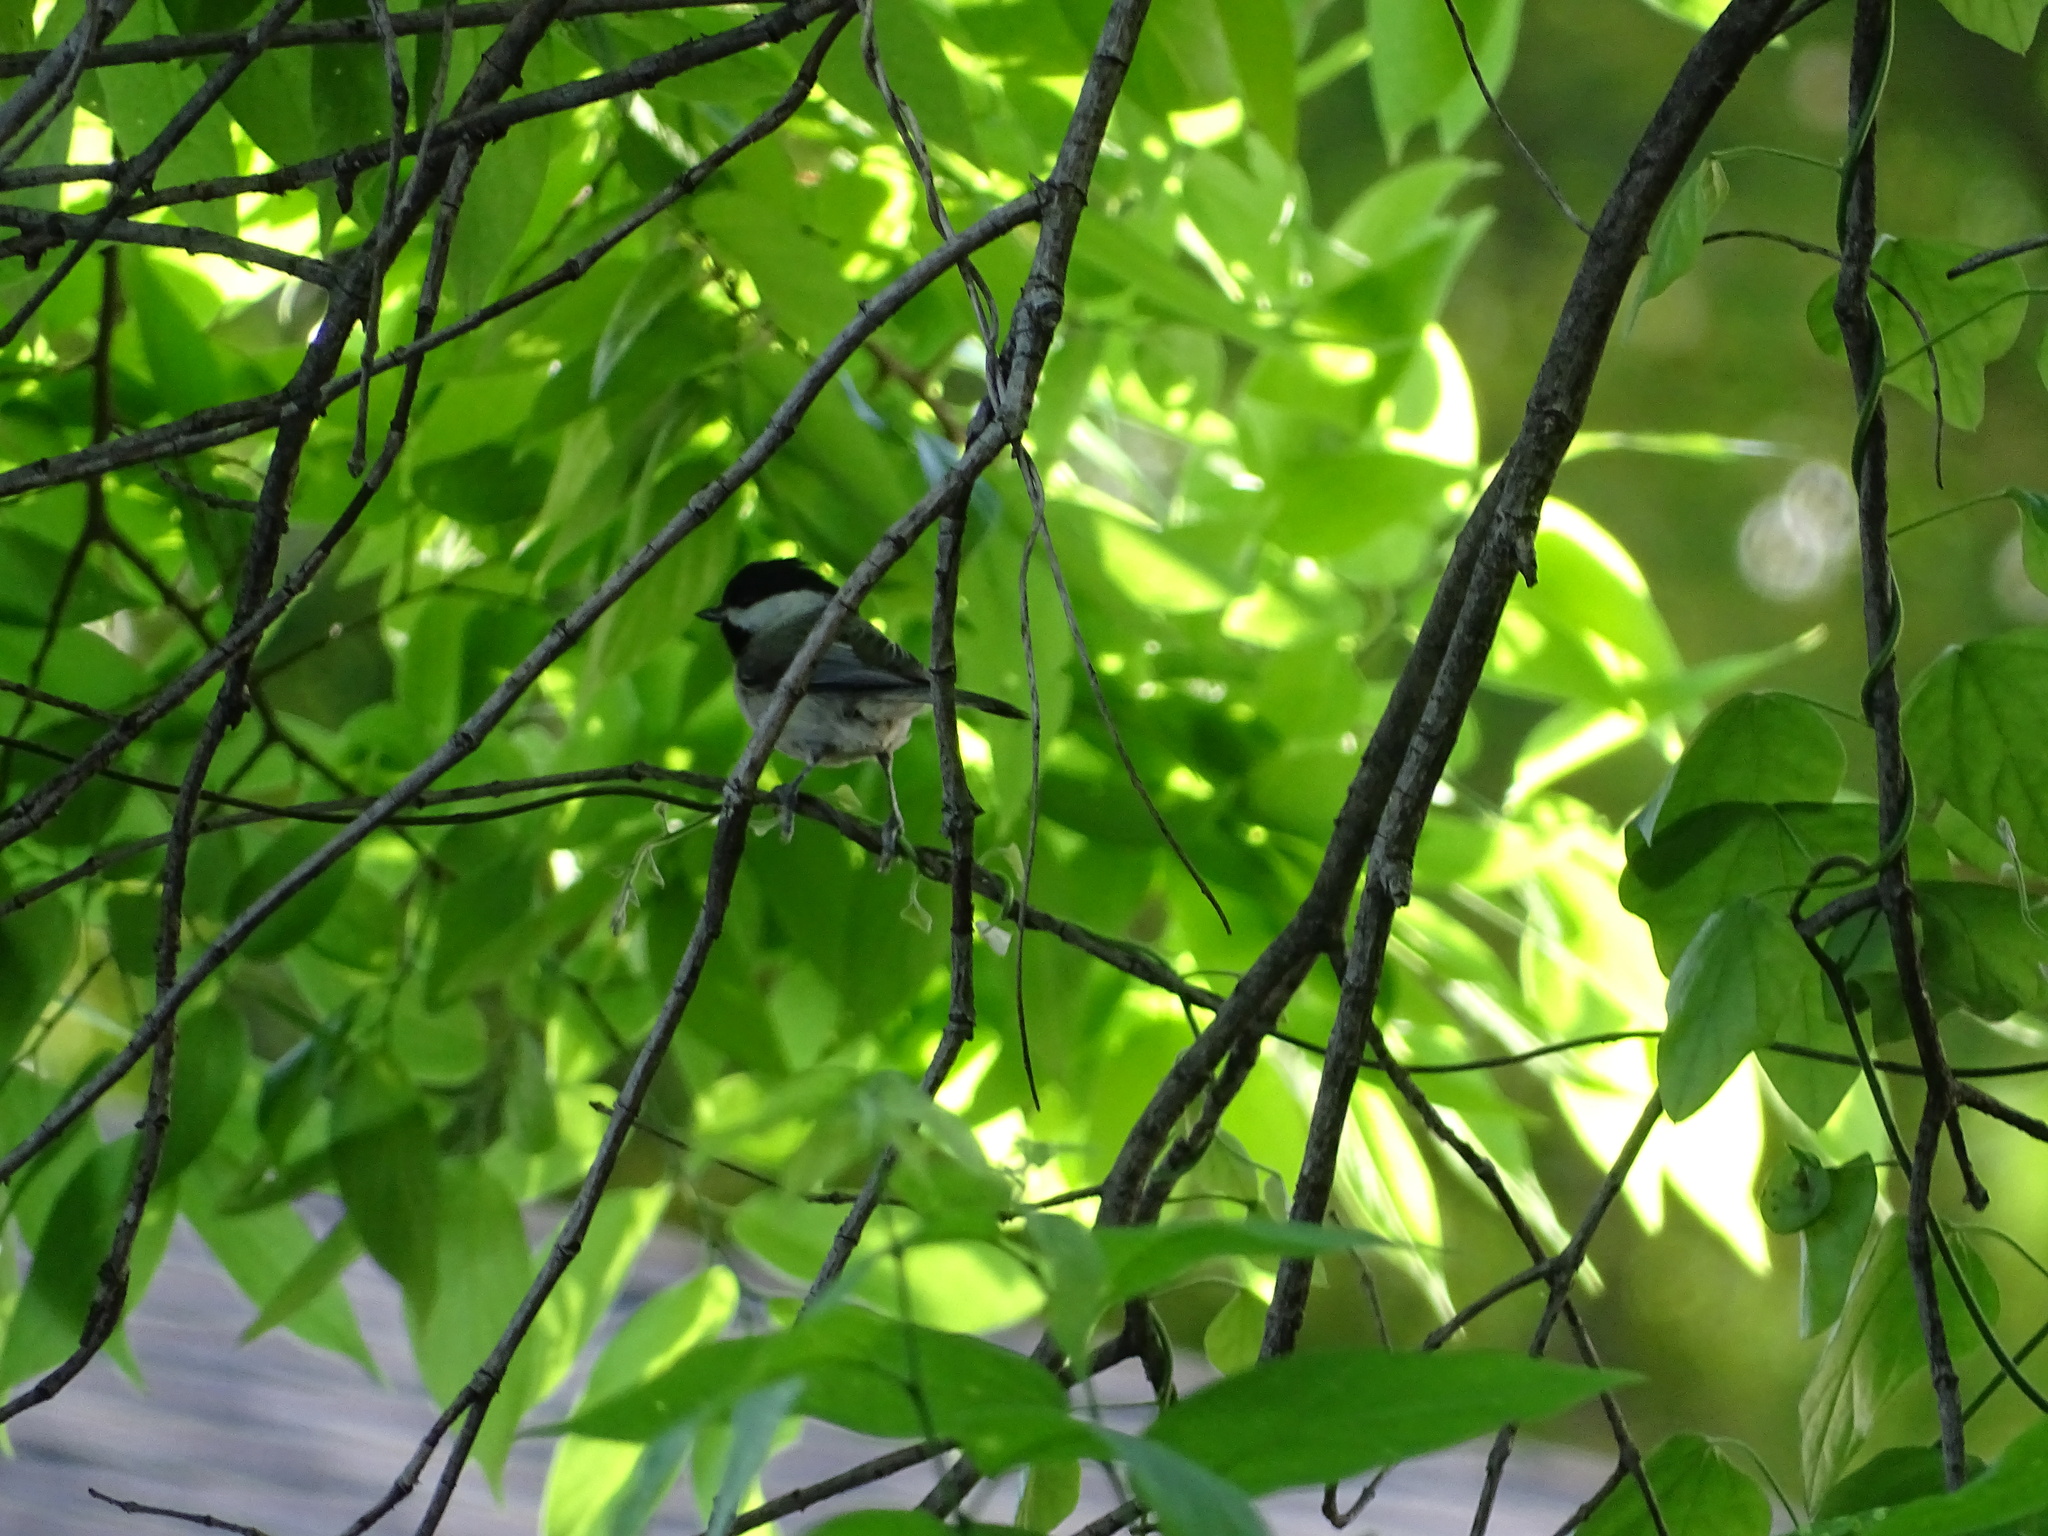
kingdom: Animalia
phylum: Chordata
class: Aves
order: Passeriformes
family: Paridae
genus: Poecile
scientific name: Poecile carolinensis
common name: Carolina chickadee
